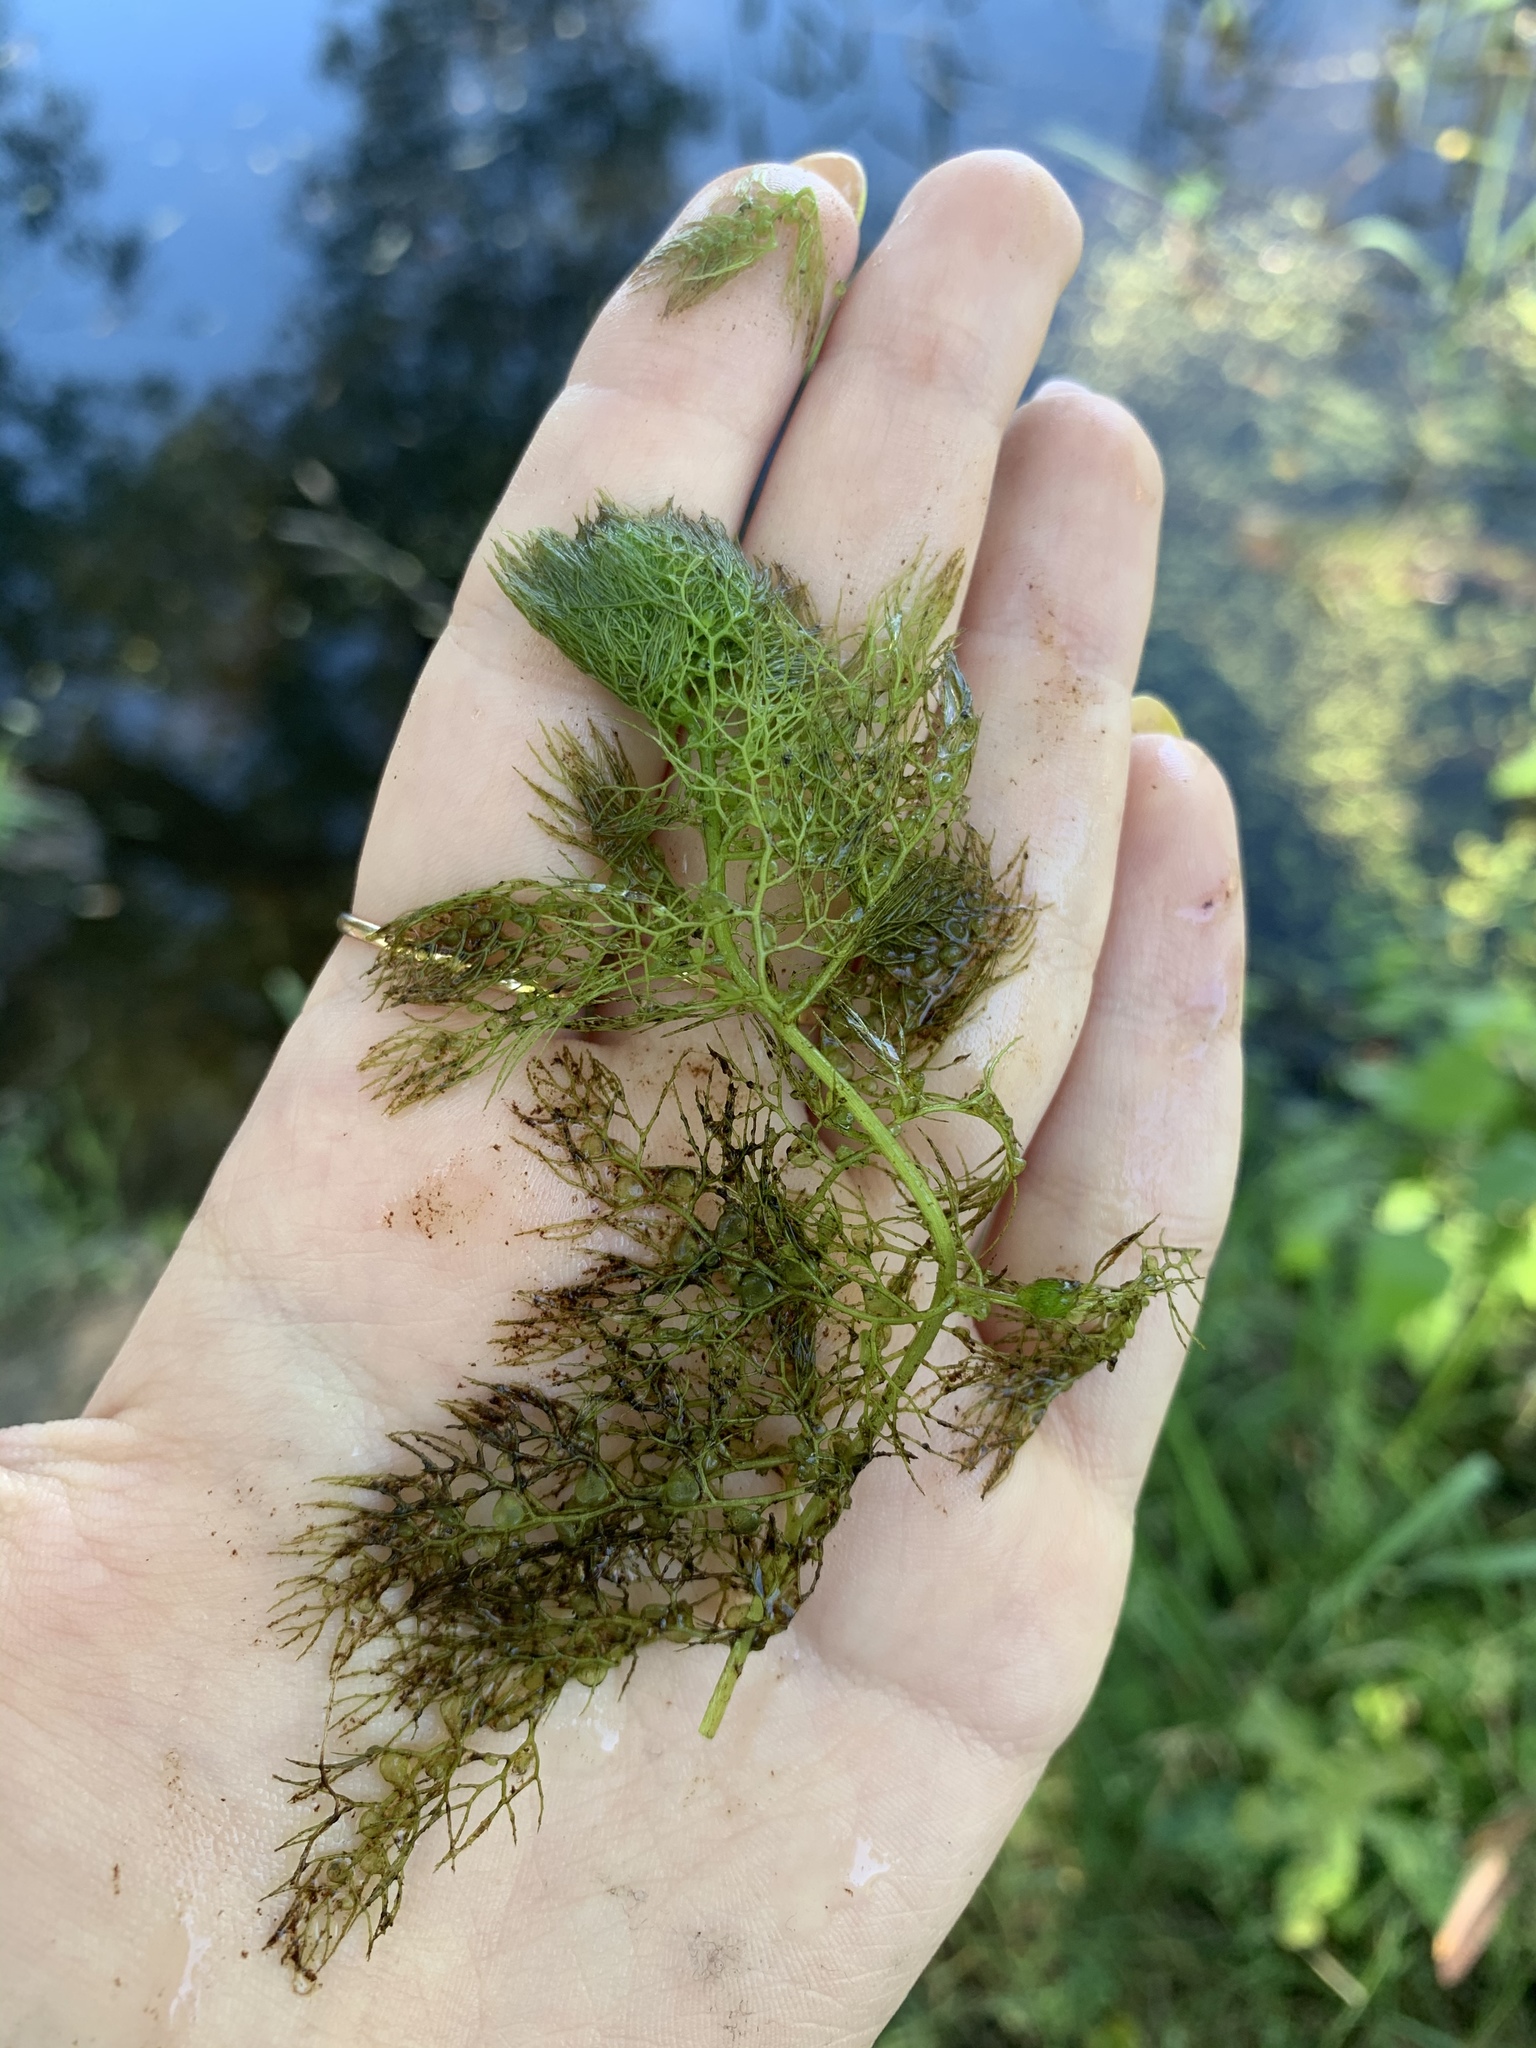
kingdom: Plantae
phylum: Tracheophyta
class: Magnoliopsida
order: Lamiales
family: Lentibulariaceae
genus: Utricularia
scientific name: Utricularia
